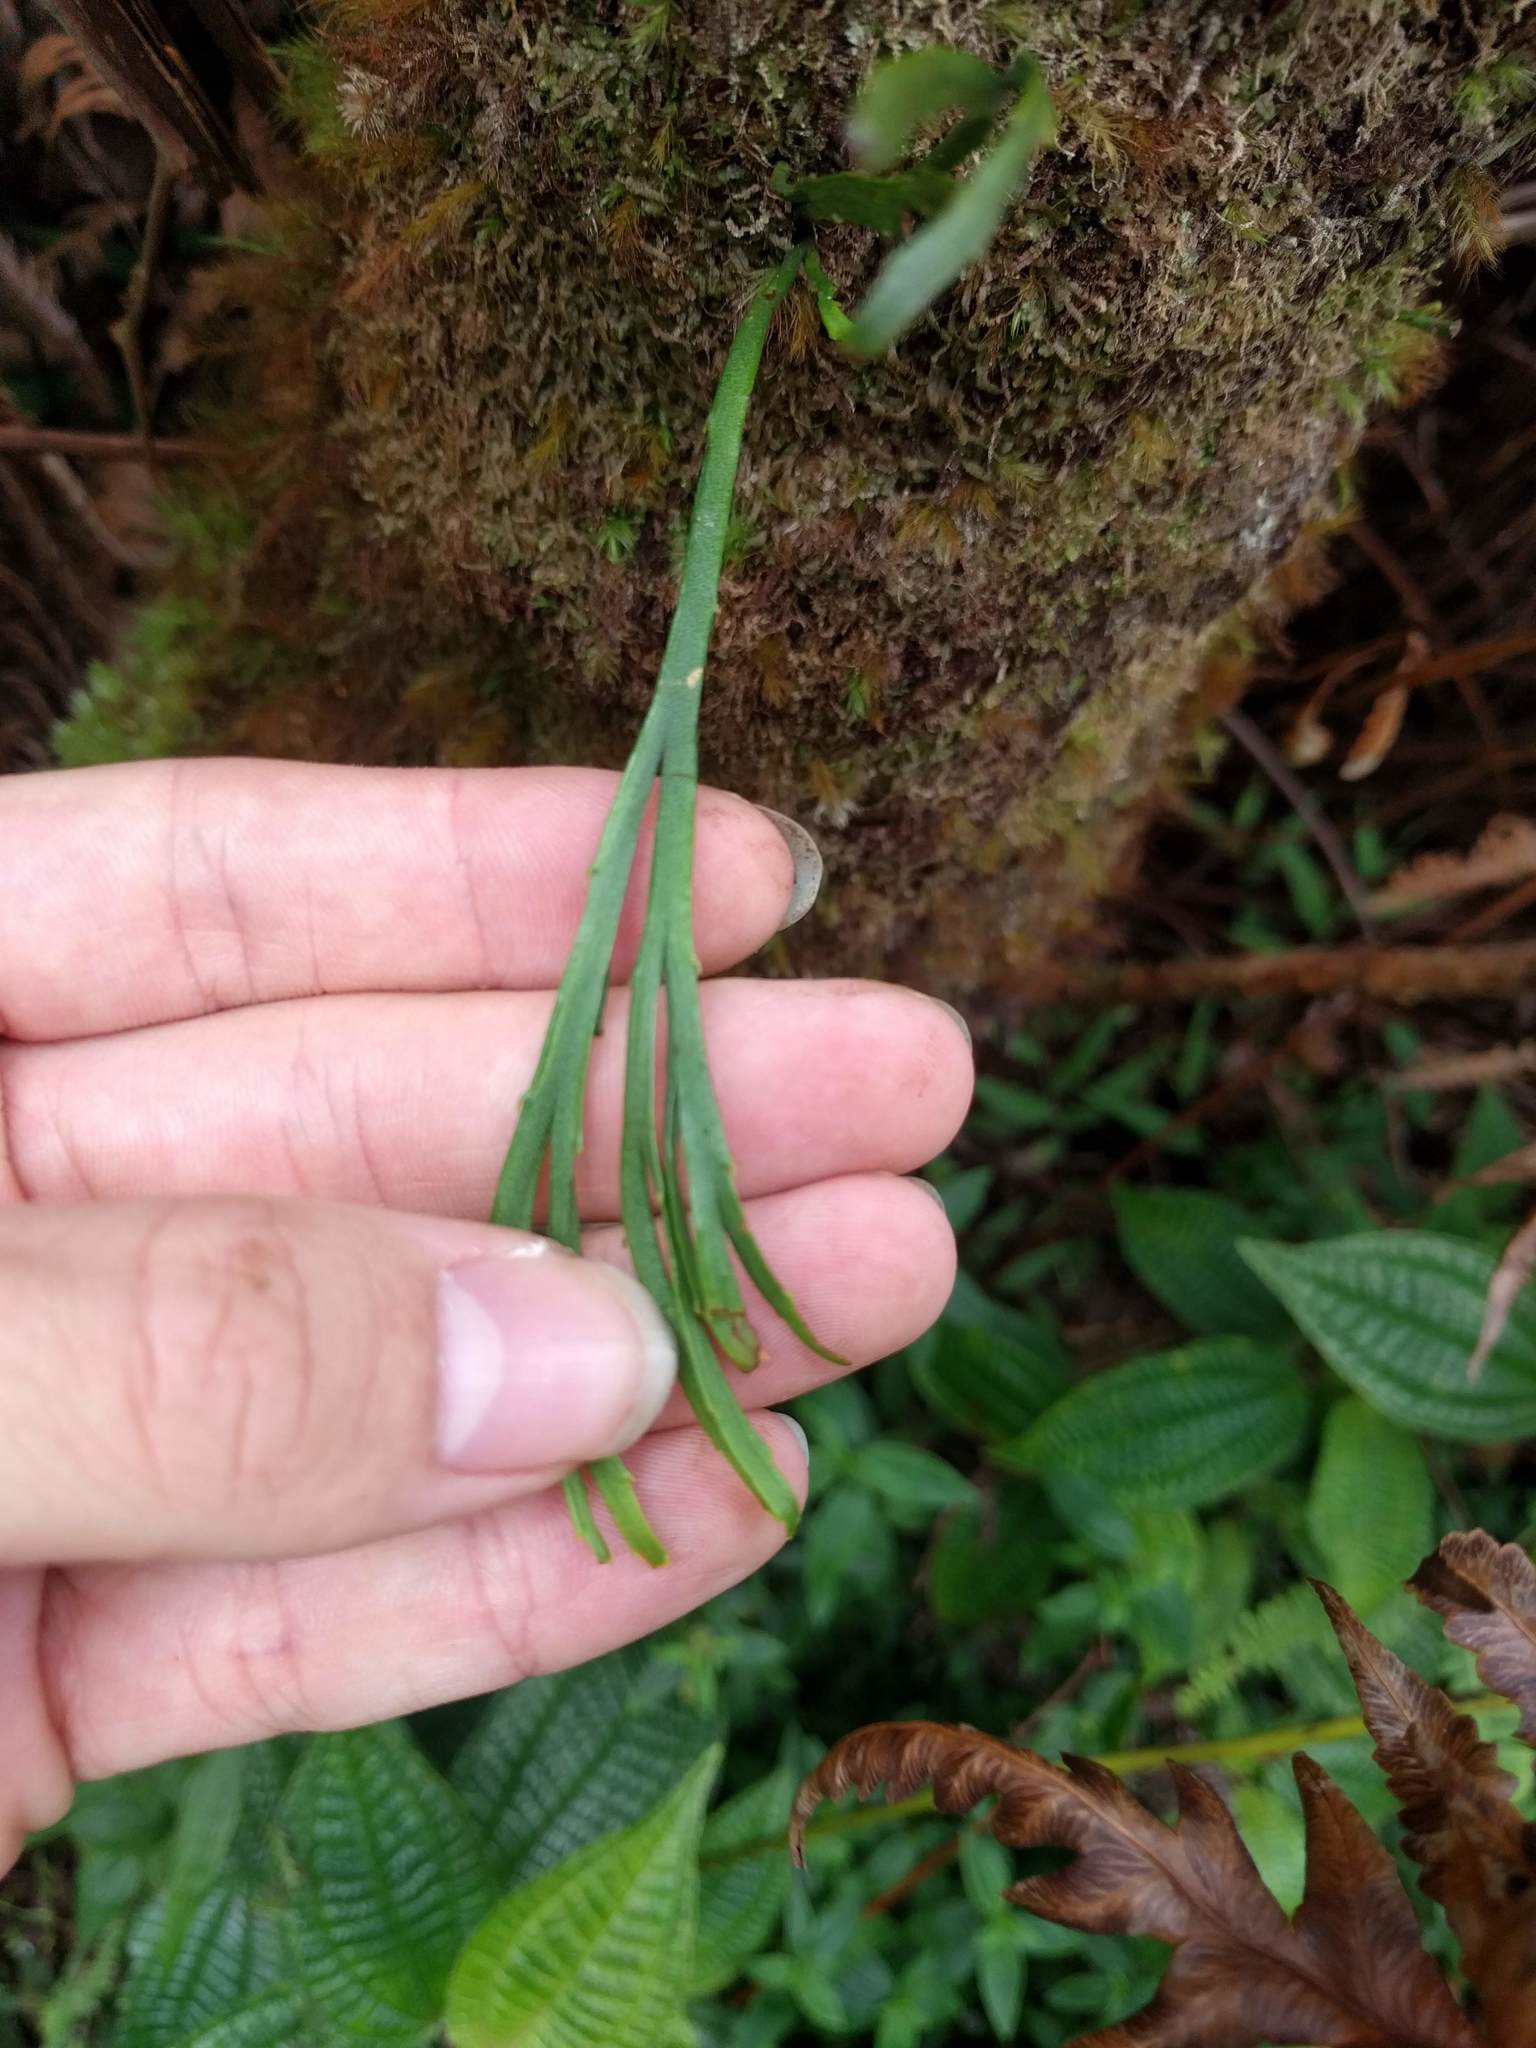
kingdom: Plantae
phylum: Tracheophyta
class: Polypodiopsida
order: Psilotales
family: Psilotaceae
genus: Psilotum
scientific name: Psilotum complanatum
